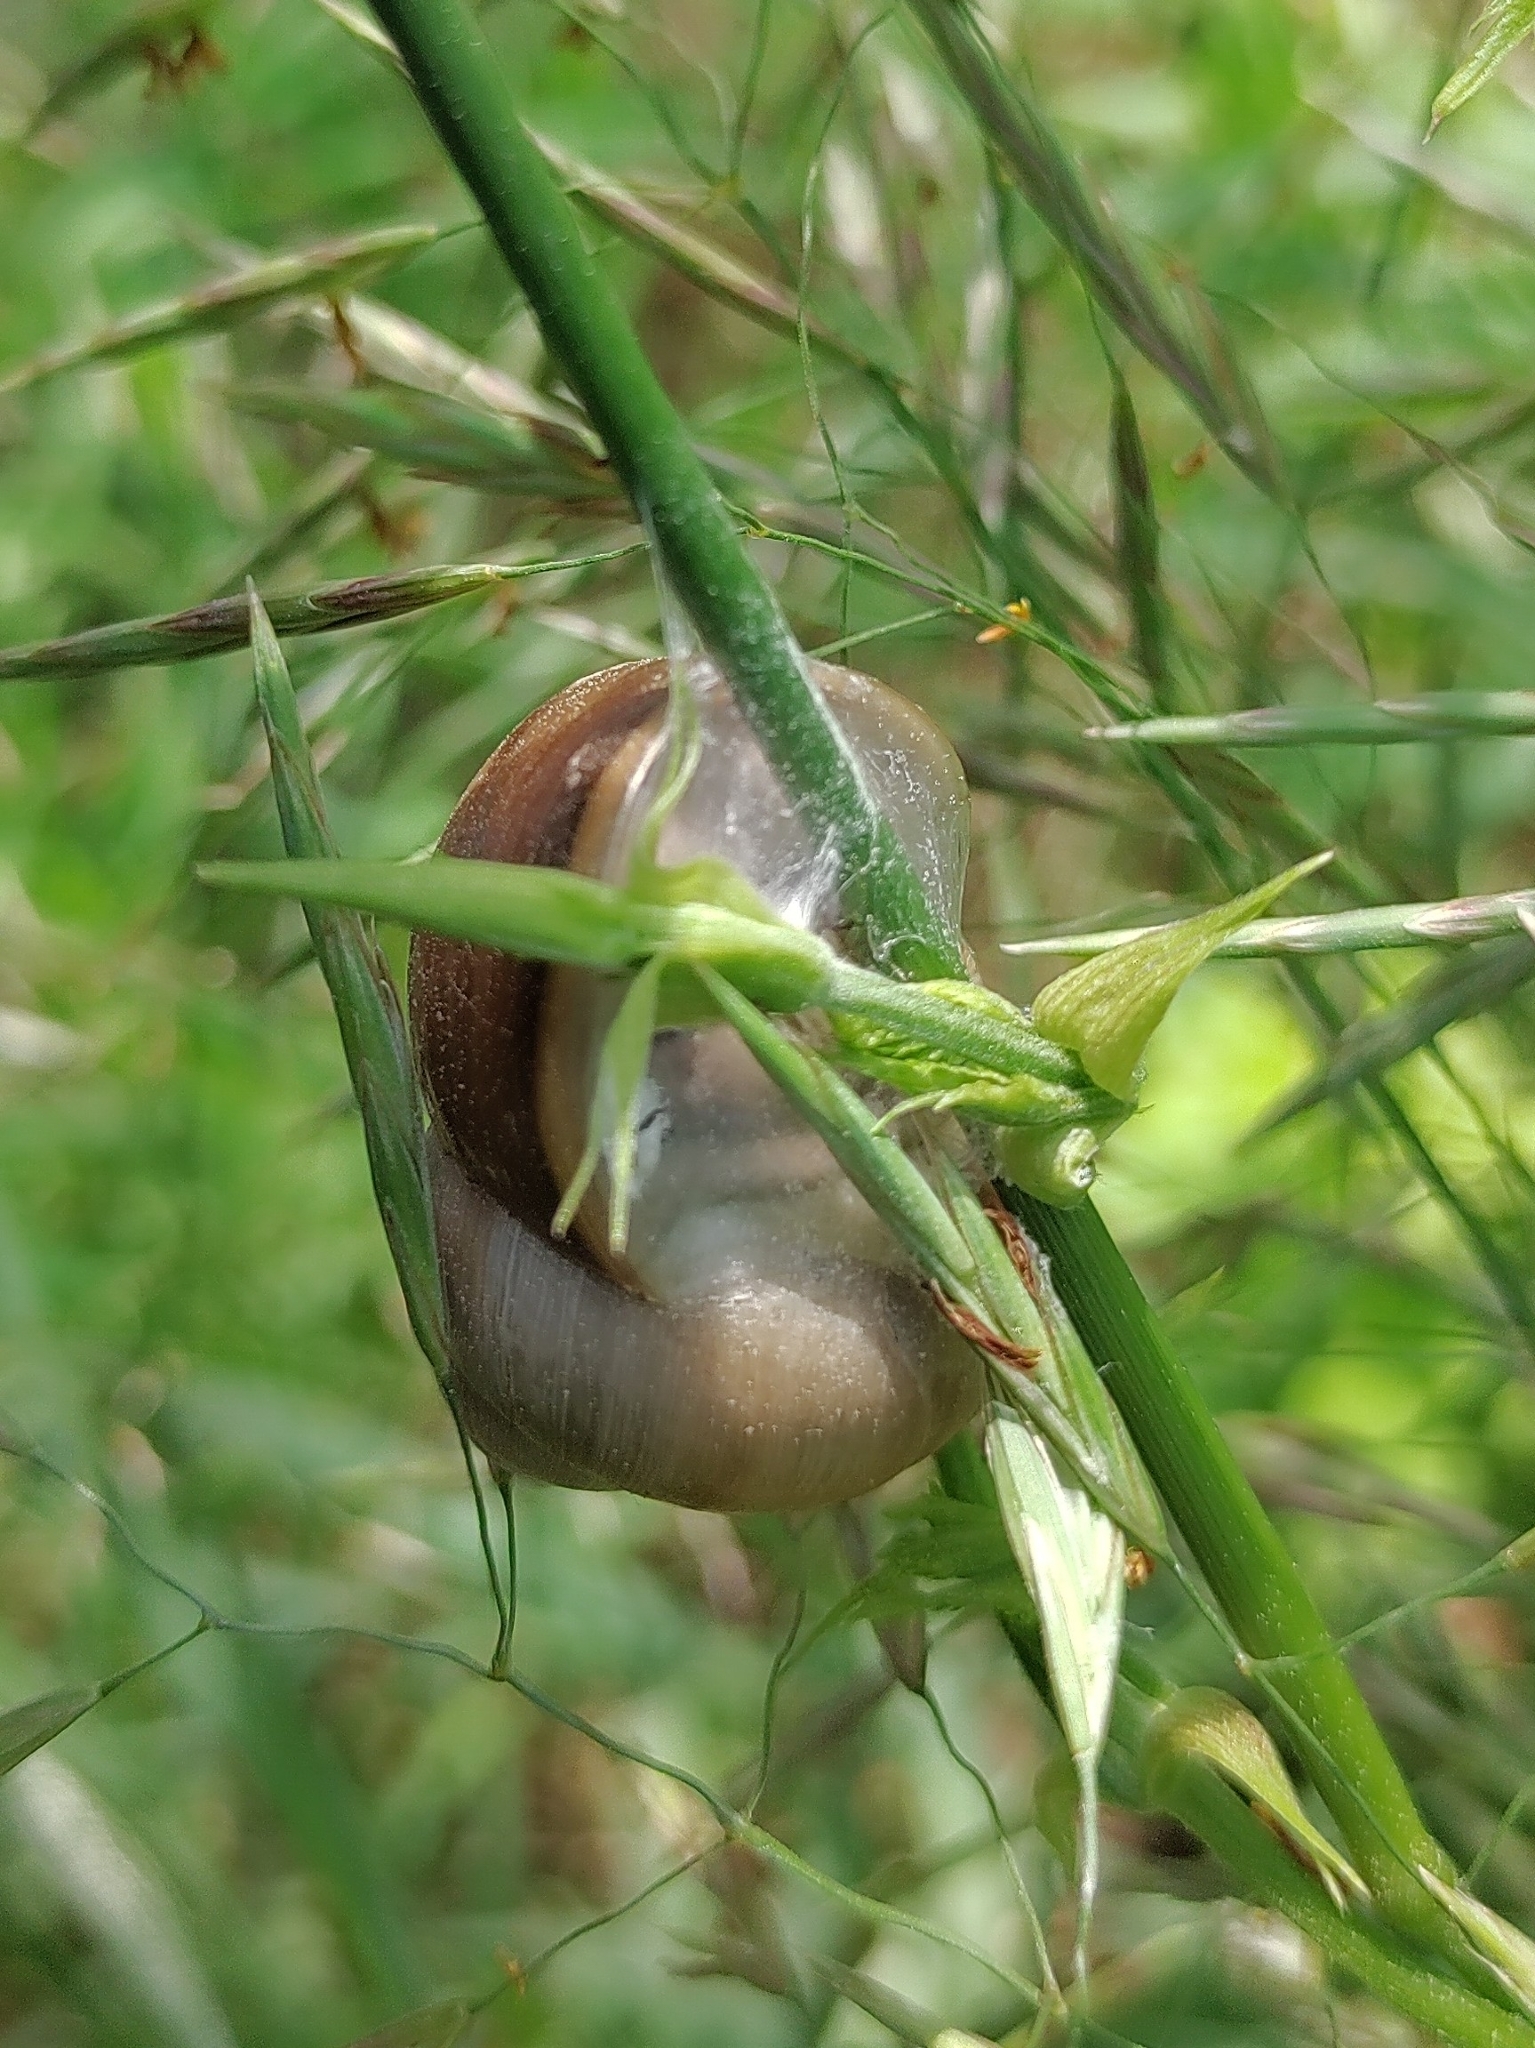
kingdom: Animalia
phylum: Mollusca
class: Gastropoda
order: Stylommatophora
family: Helicidae
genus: Helix
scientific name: Helix lutescens
